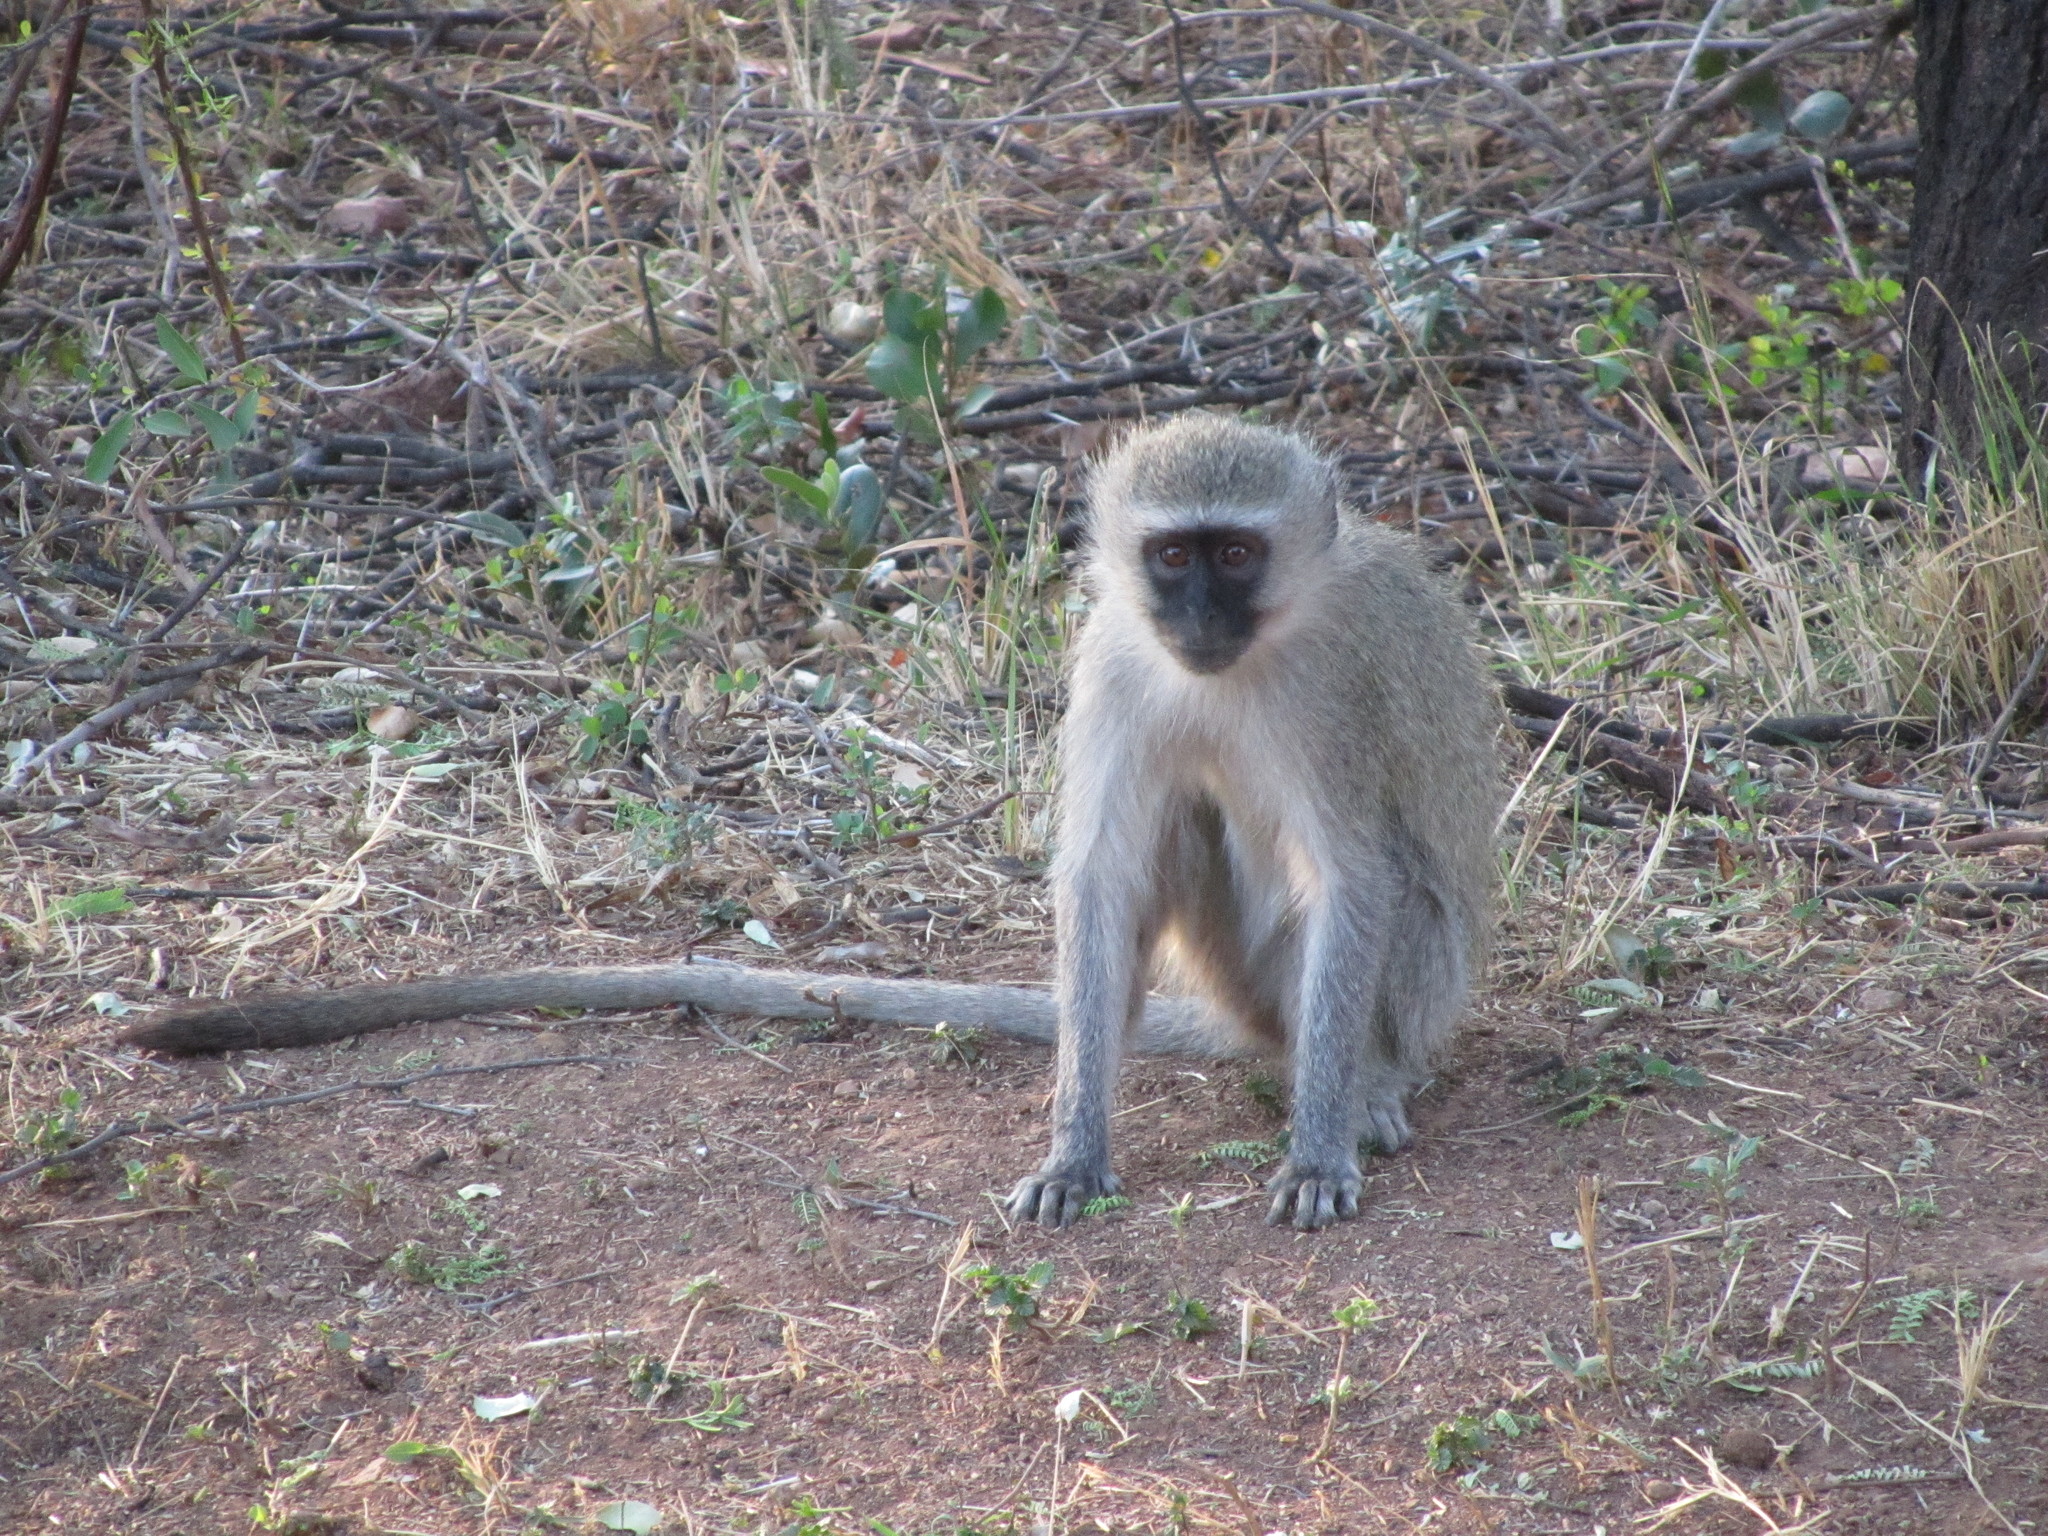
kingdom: Animalia
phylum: Chordata
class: Mammalia
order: Primates
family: Cercopithecidae
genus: Chlorocebus
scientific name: Chlorocebus pygerythrus
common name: Vervet monkey
